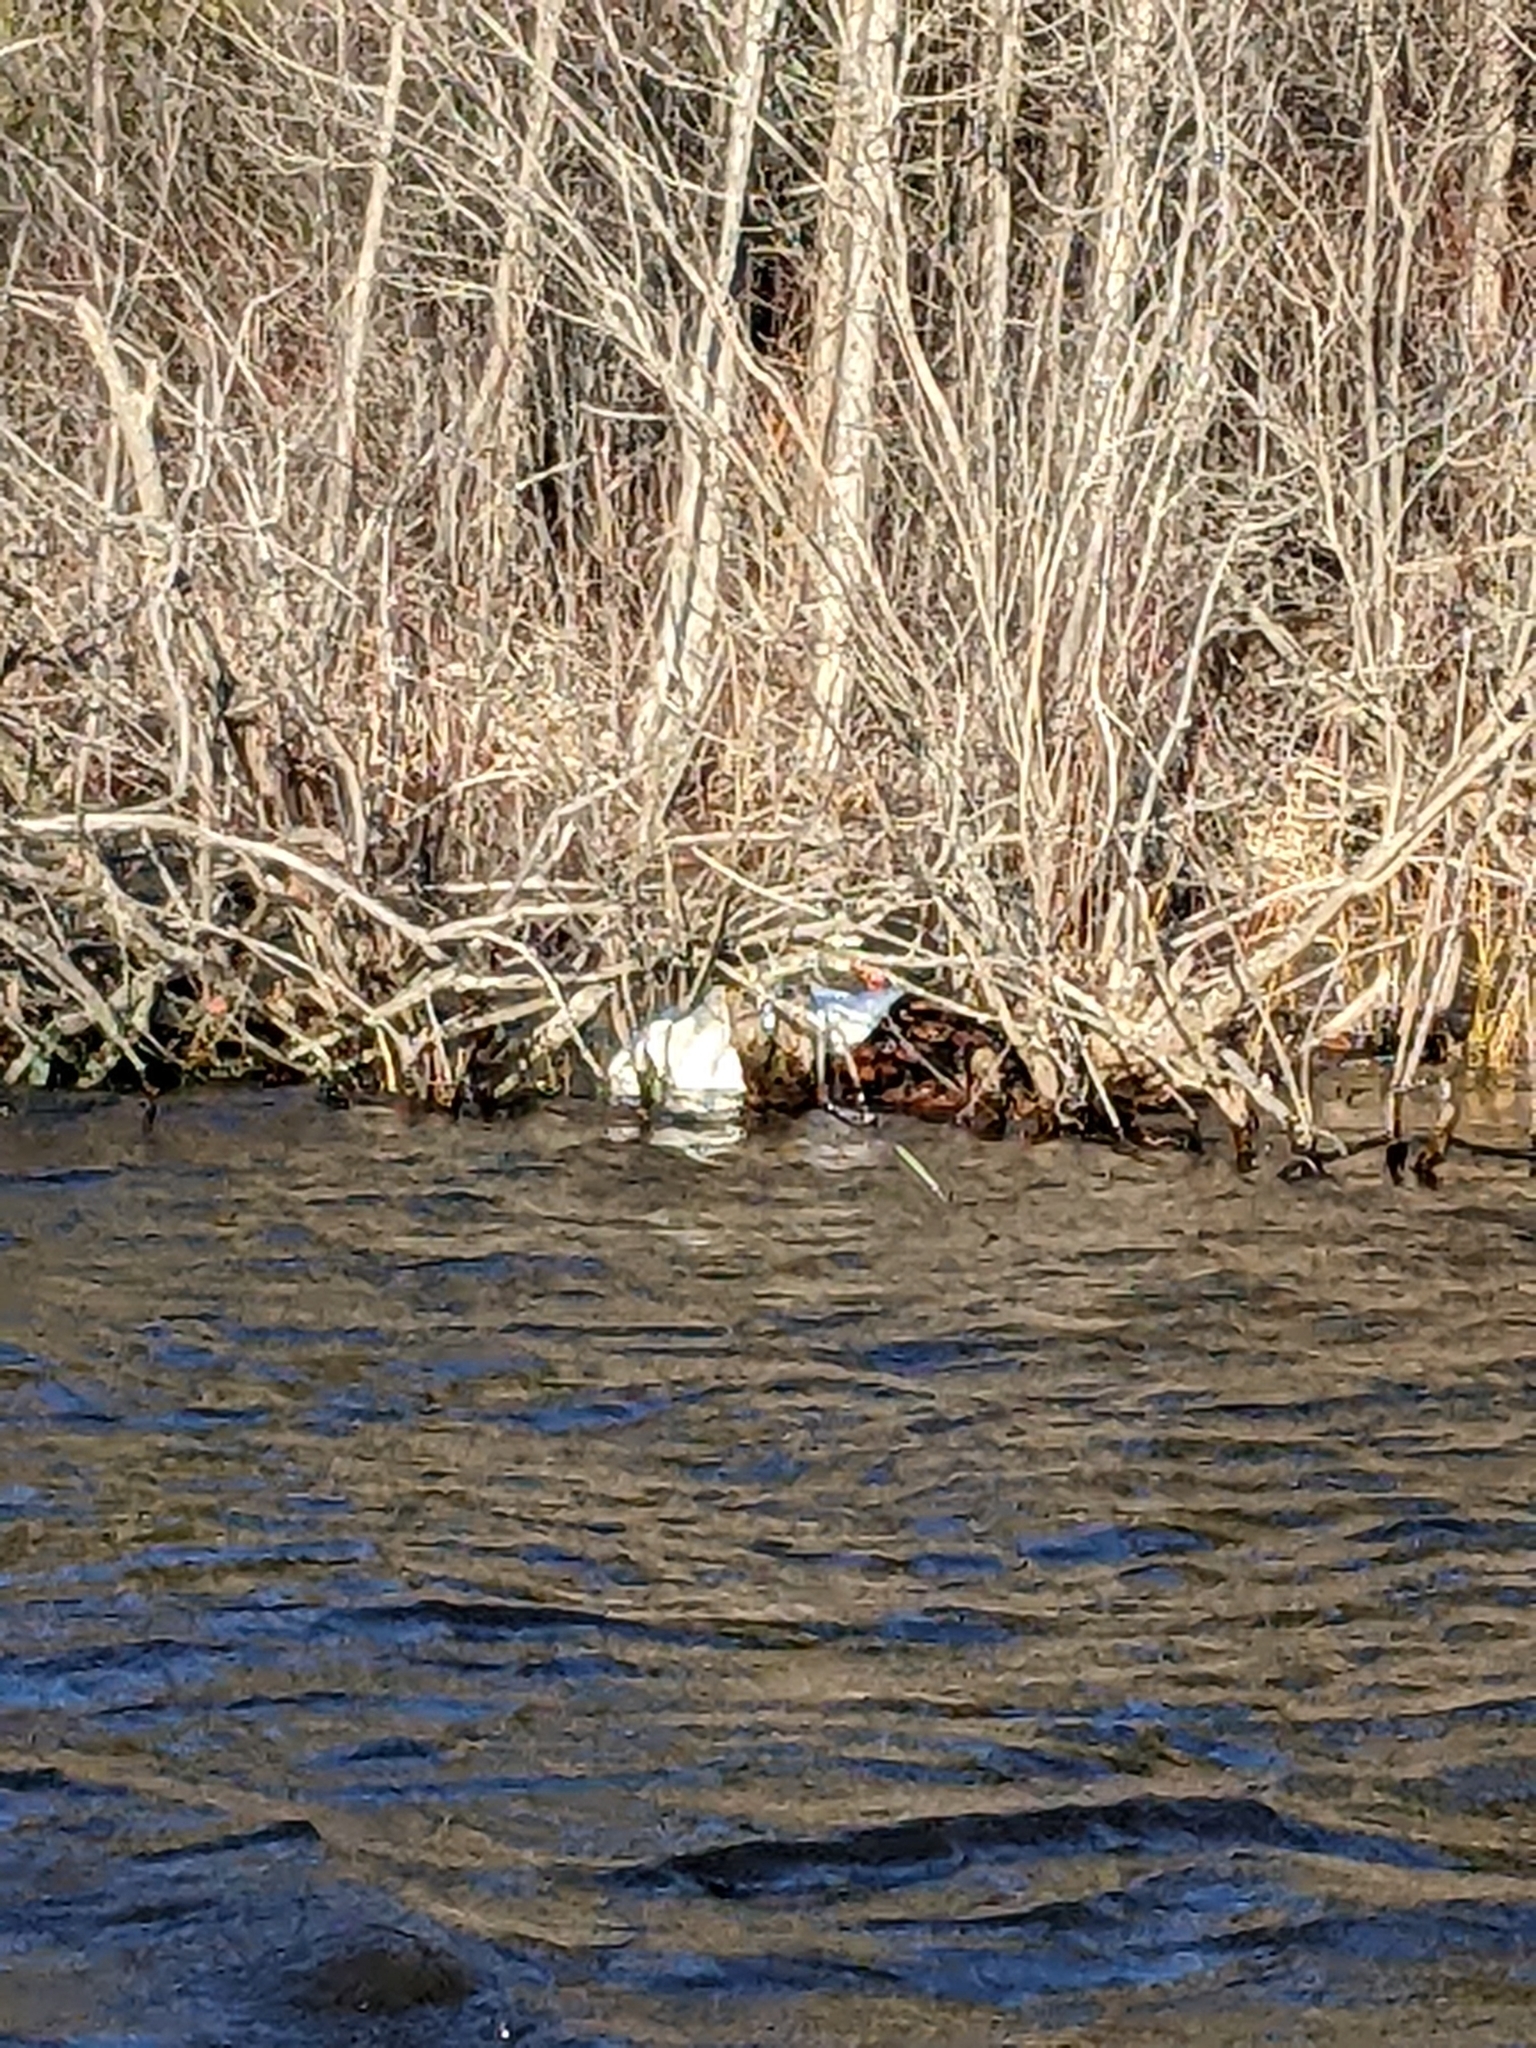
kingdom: Animalia
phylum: Chordata
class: Aves
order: Anseriformes
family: Anatidae
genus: Cygnus
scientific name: Cygnus olor
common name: Mute swan
